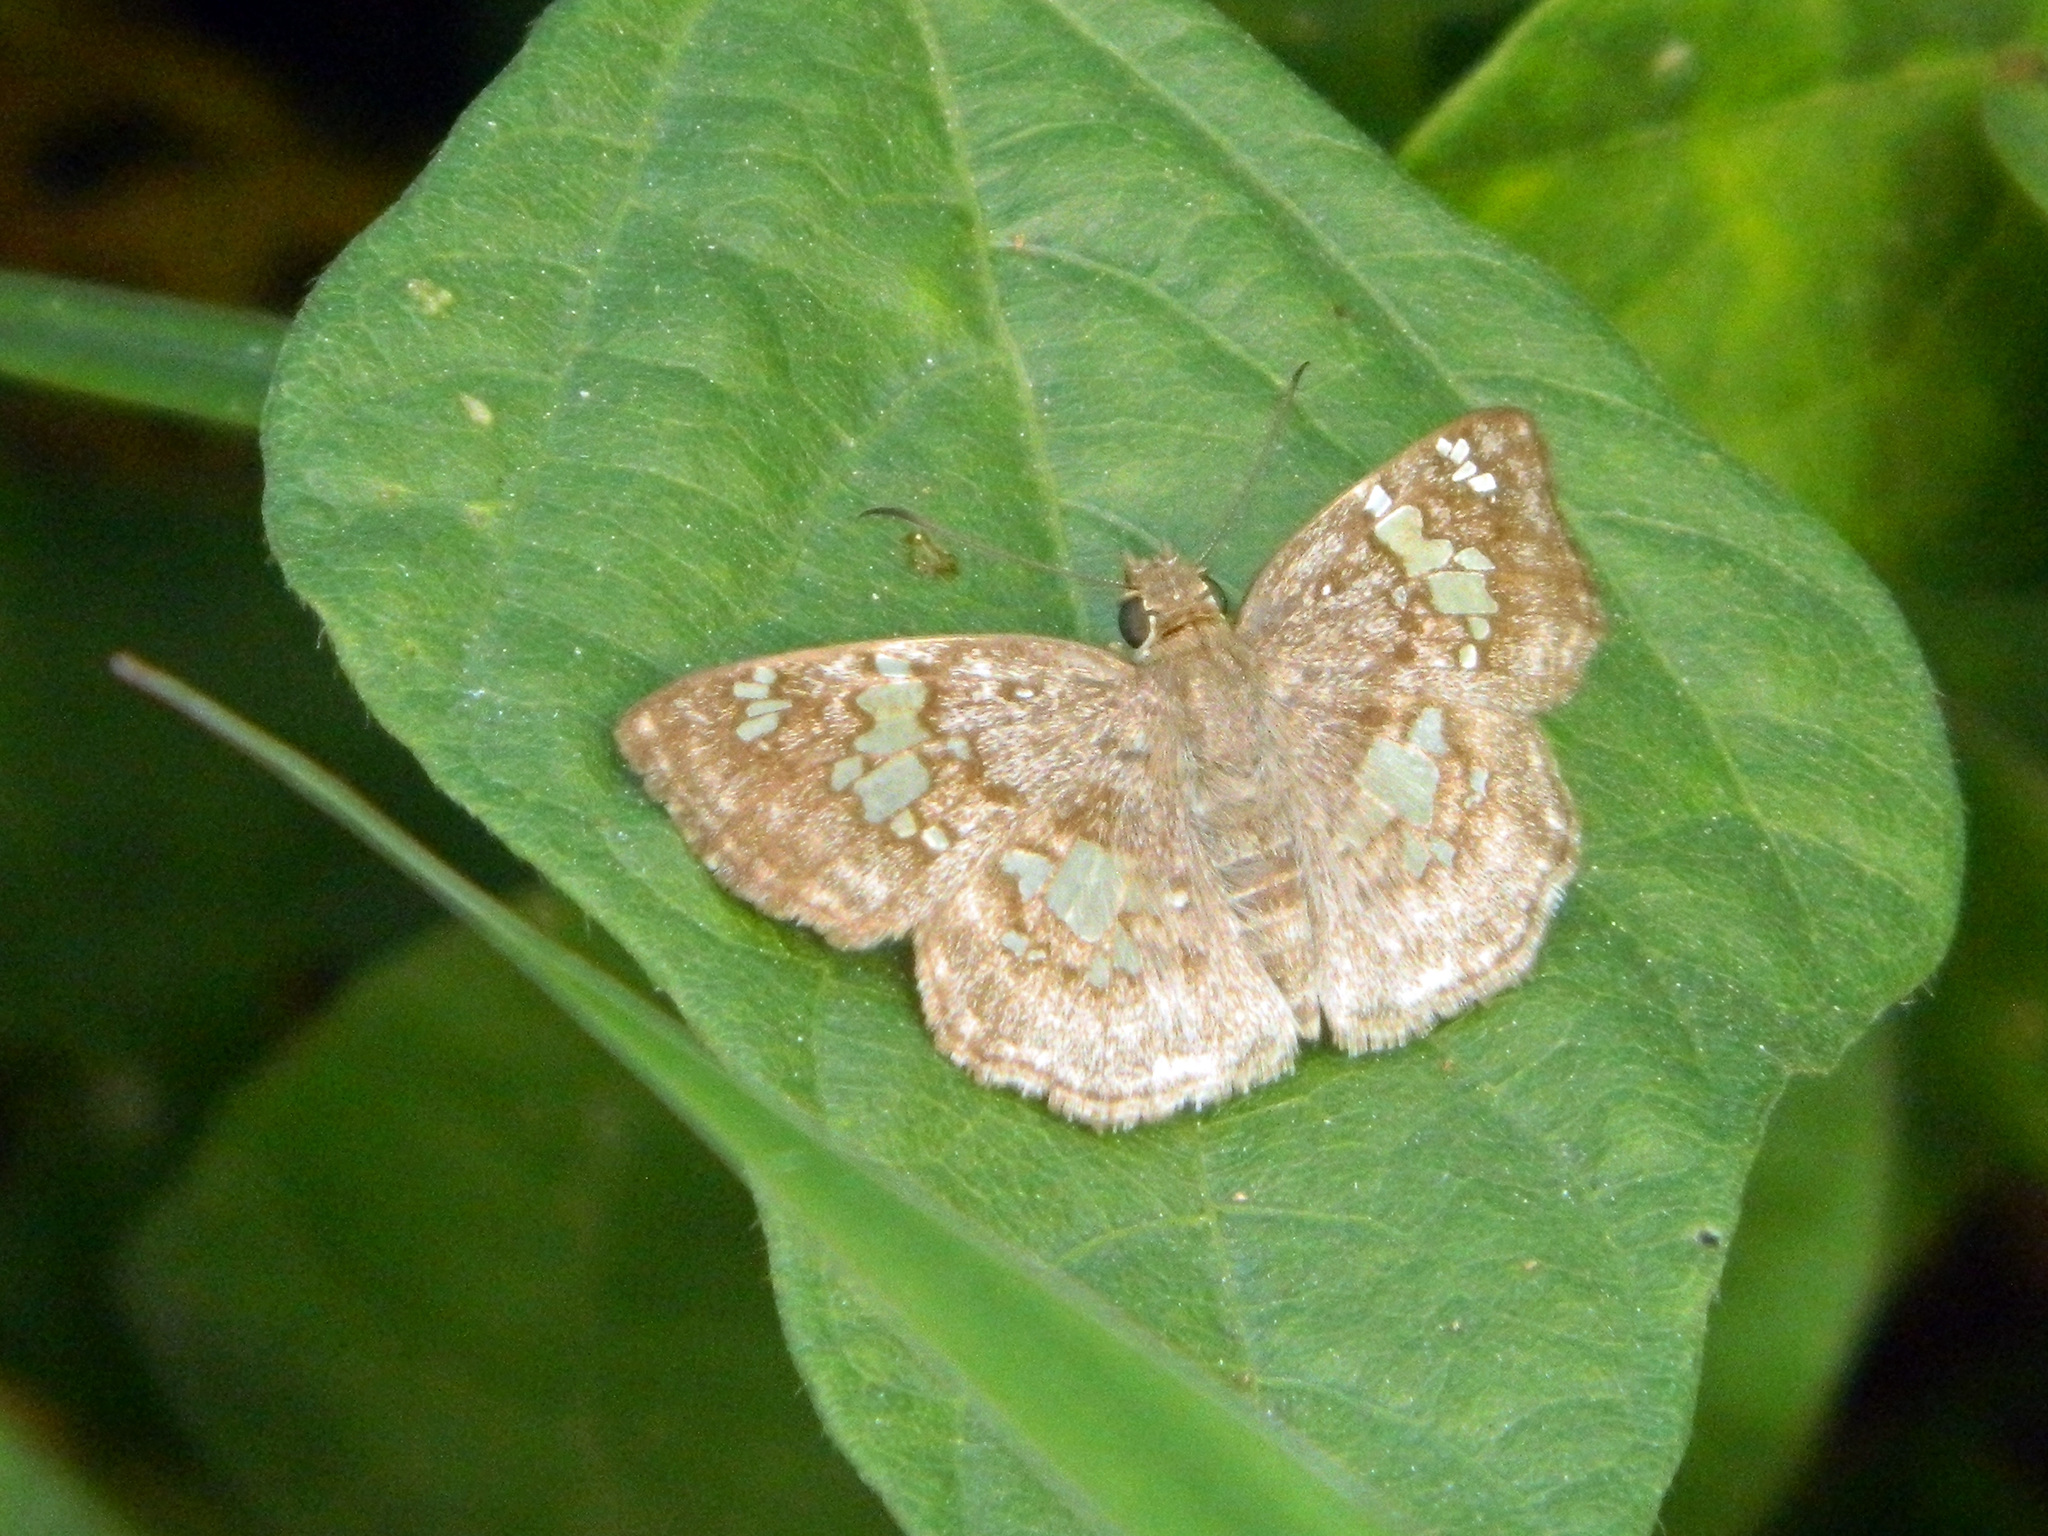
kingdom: Animalia
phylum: Arthropoda
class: Insecta
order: Lepidoptera
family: Hesperiidae
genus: Xenophanes
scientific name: Xenophanes tryxus
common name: Glassy-winged skipper
